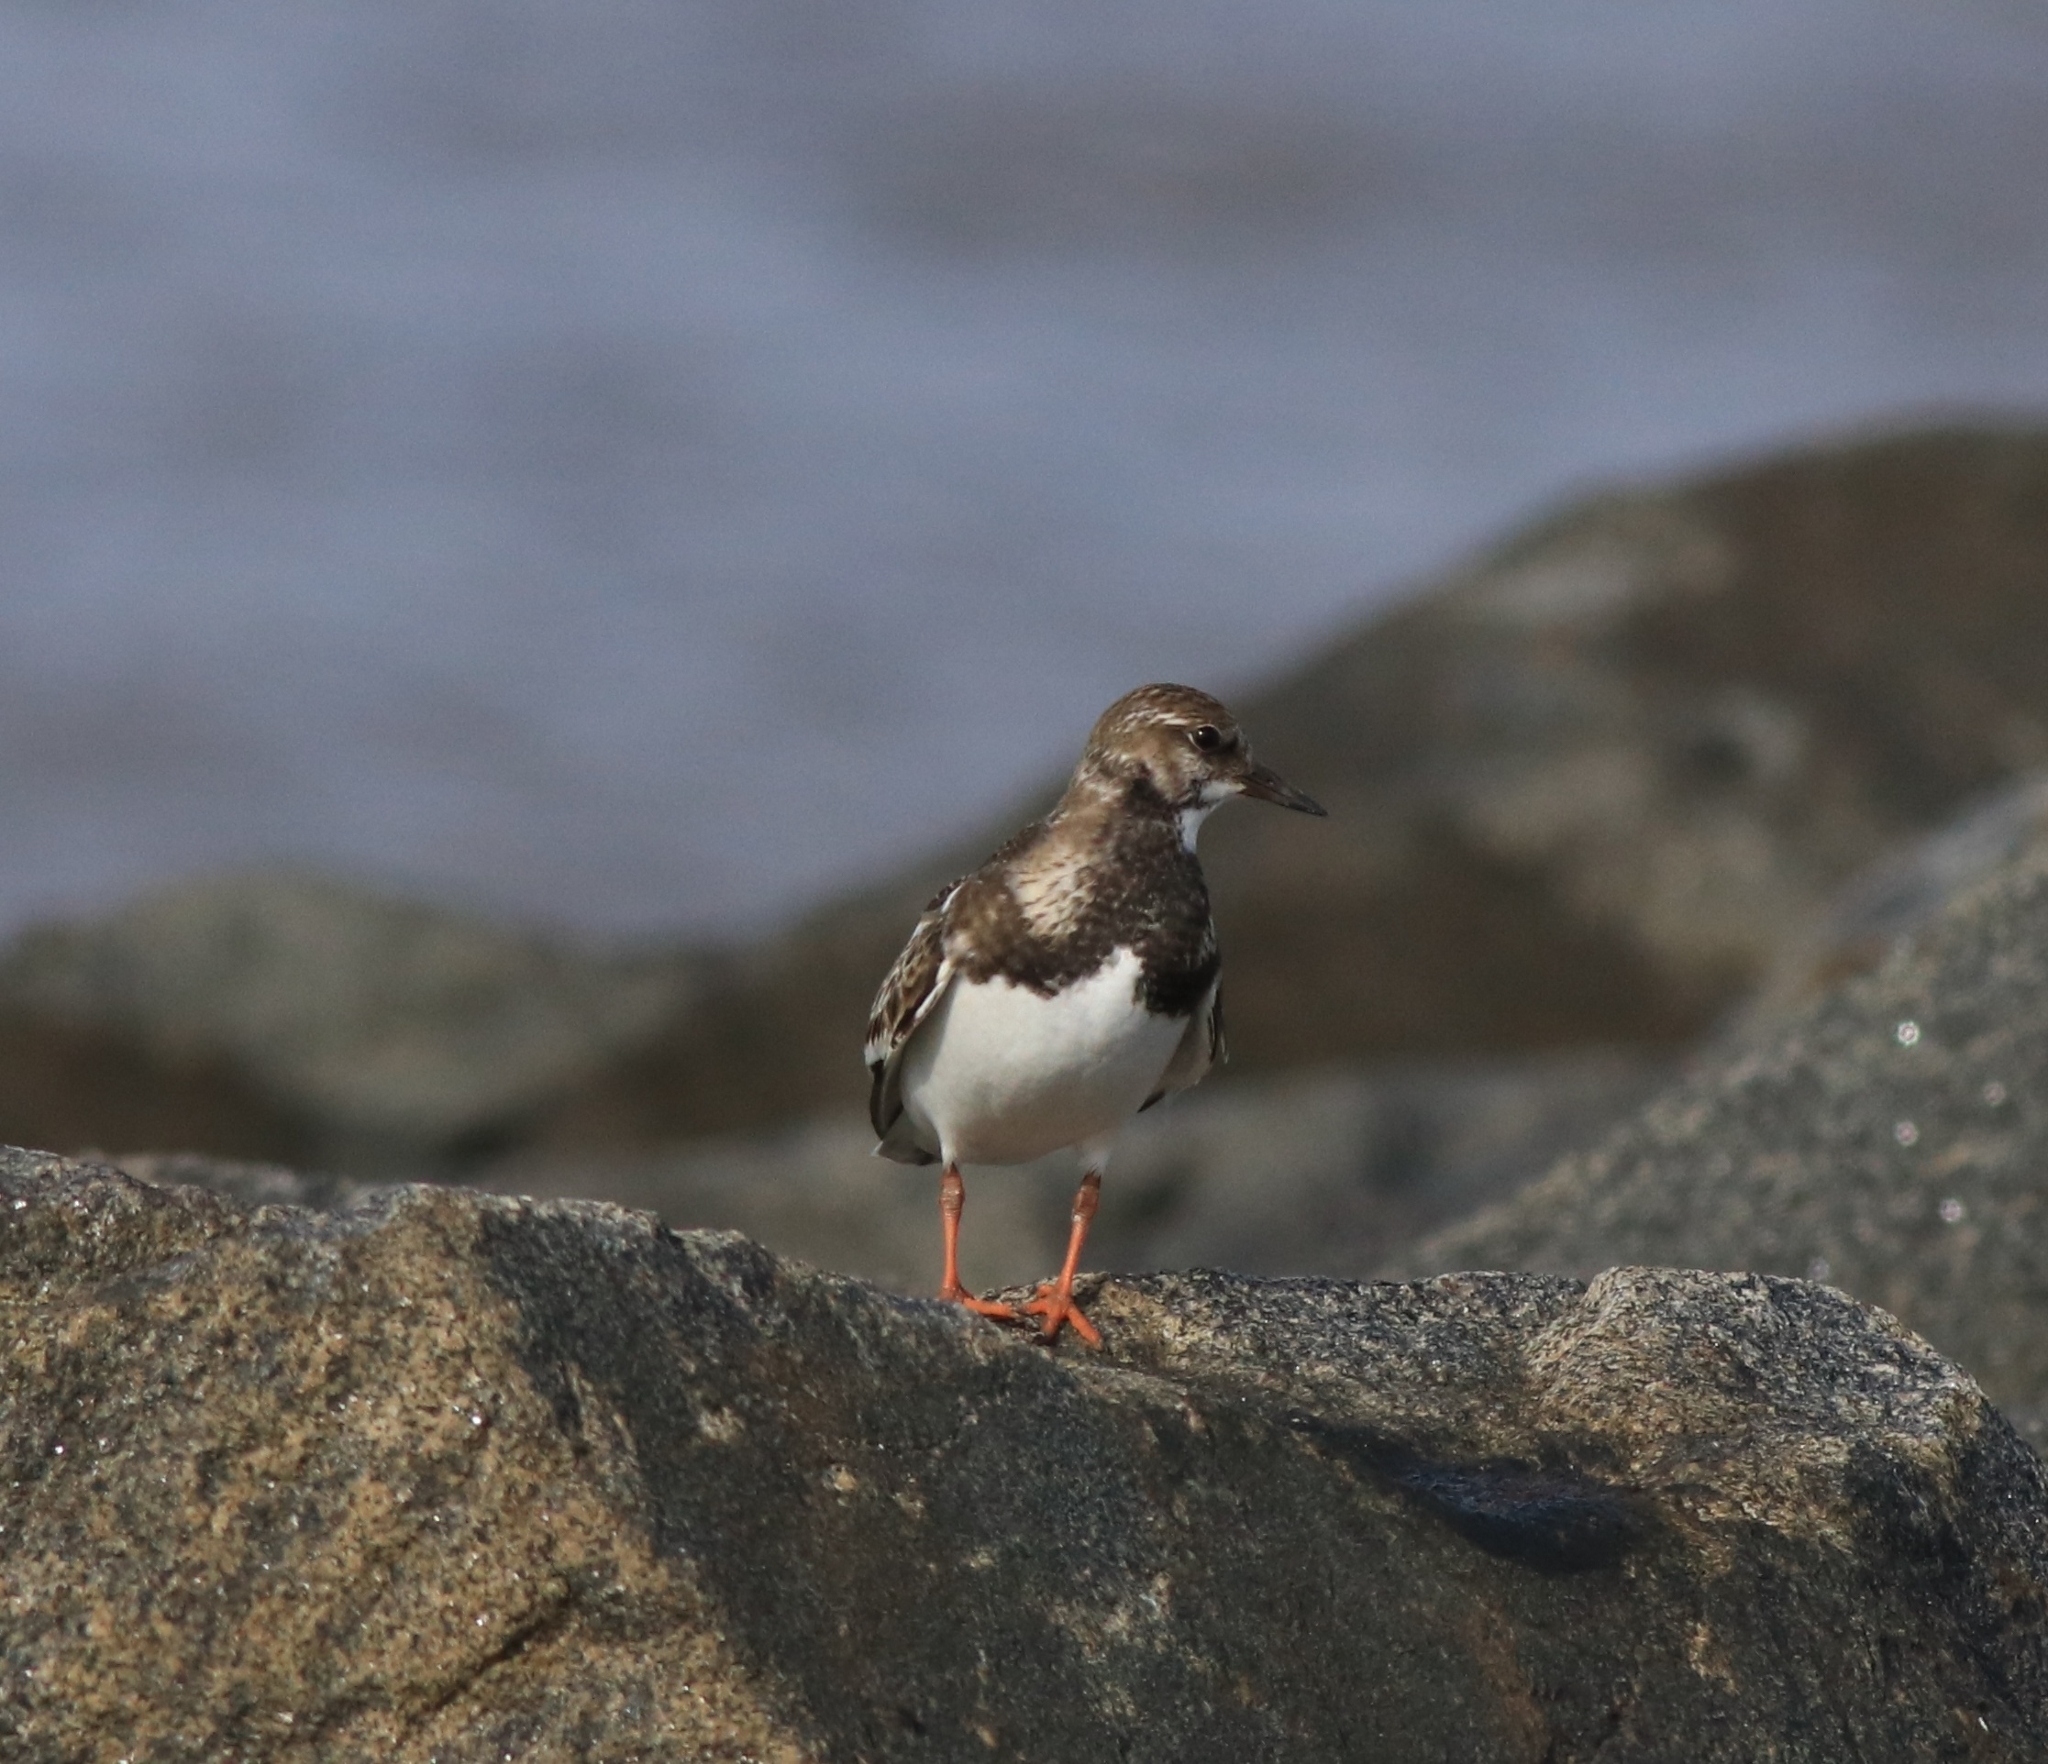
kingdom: Animalia
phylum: Chordata
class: Aves
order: Charadriiformes
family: Scolopacidae
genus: Arenaria
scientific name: Arenaria interpres
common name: Ruddy turnstone
